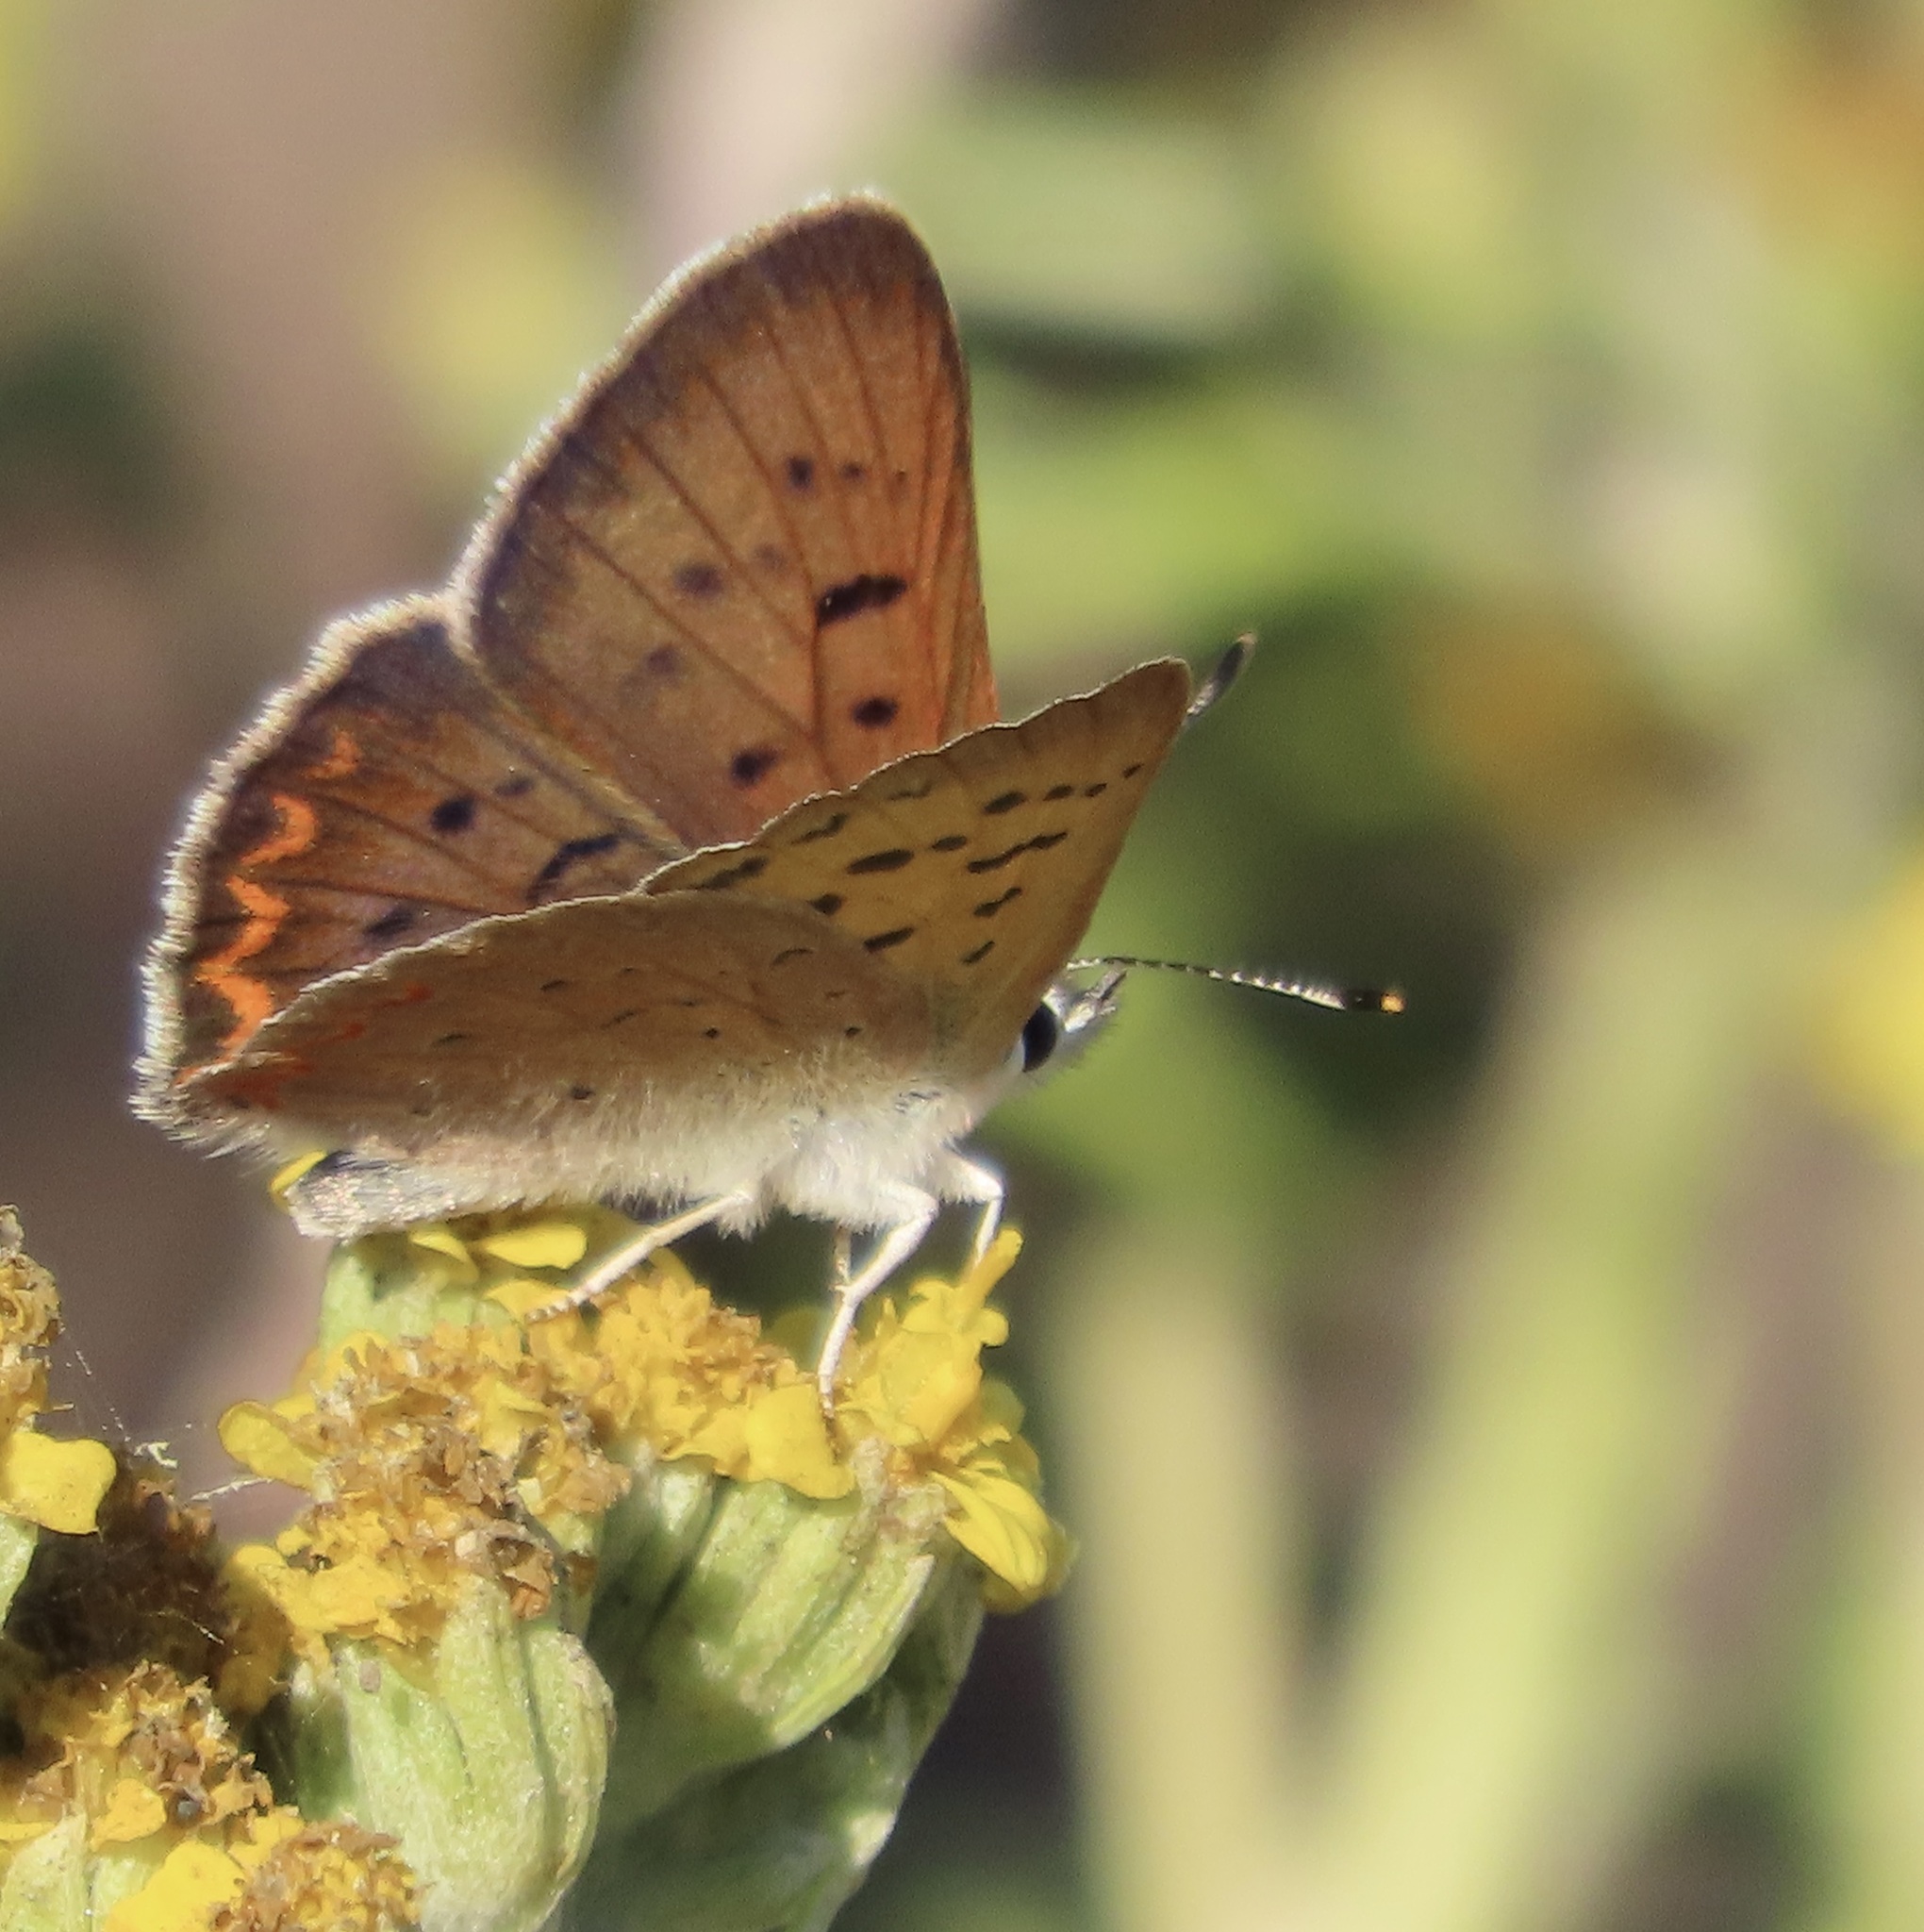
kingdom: Animalia
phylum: Arthropoda
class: Insecta
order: Lepidoptera
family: Lycaenidae
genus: Tharsalea
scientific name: Tharsalea helloides
